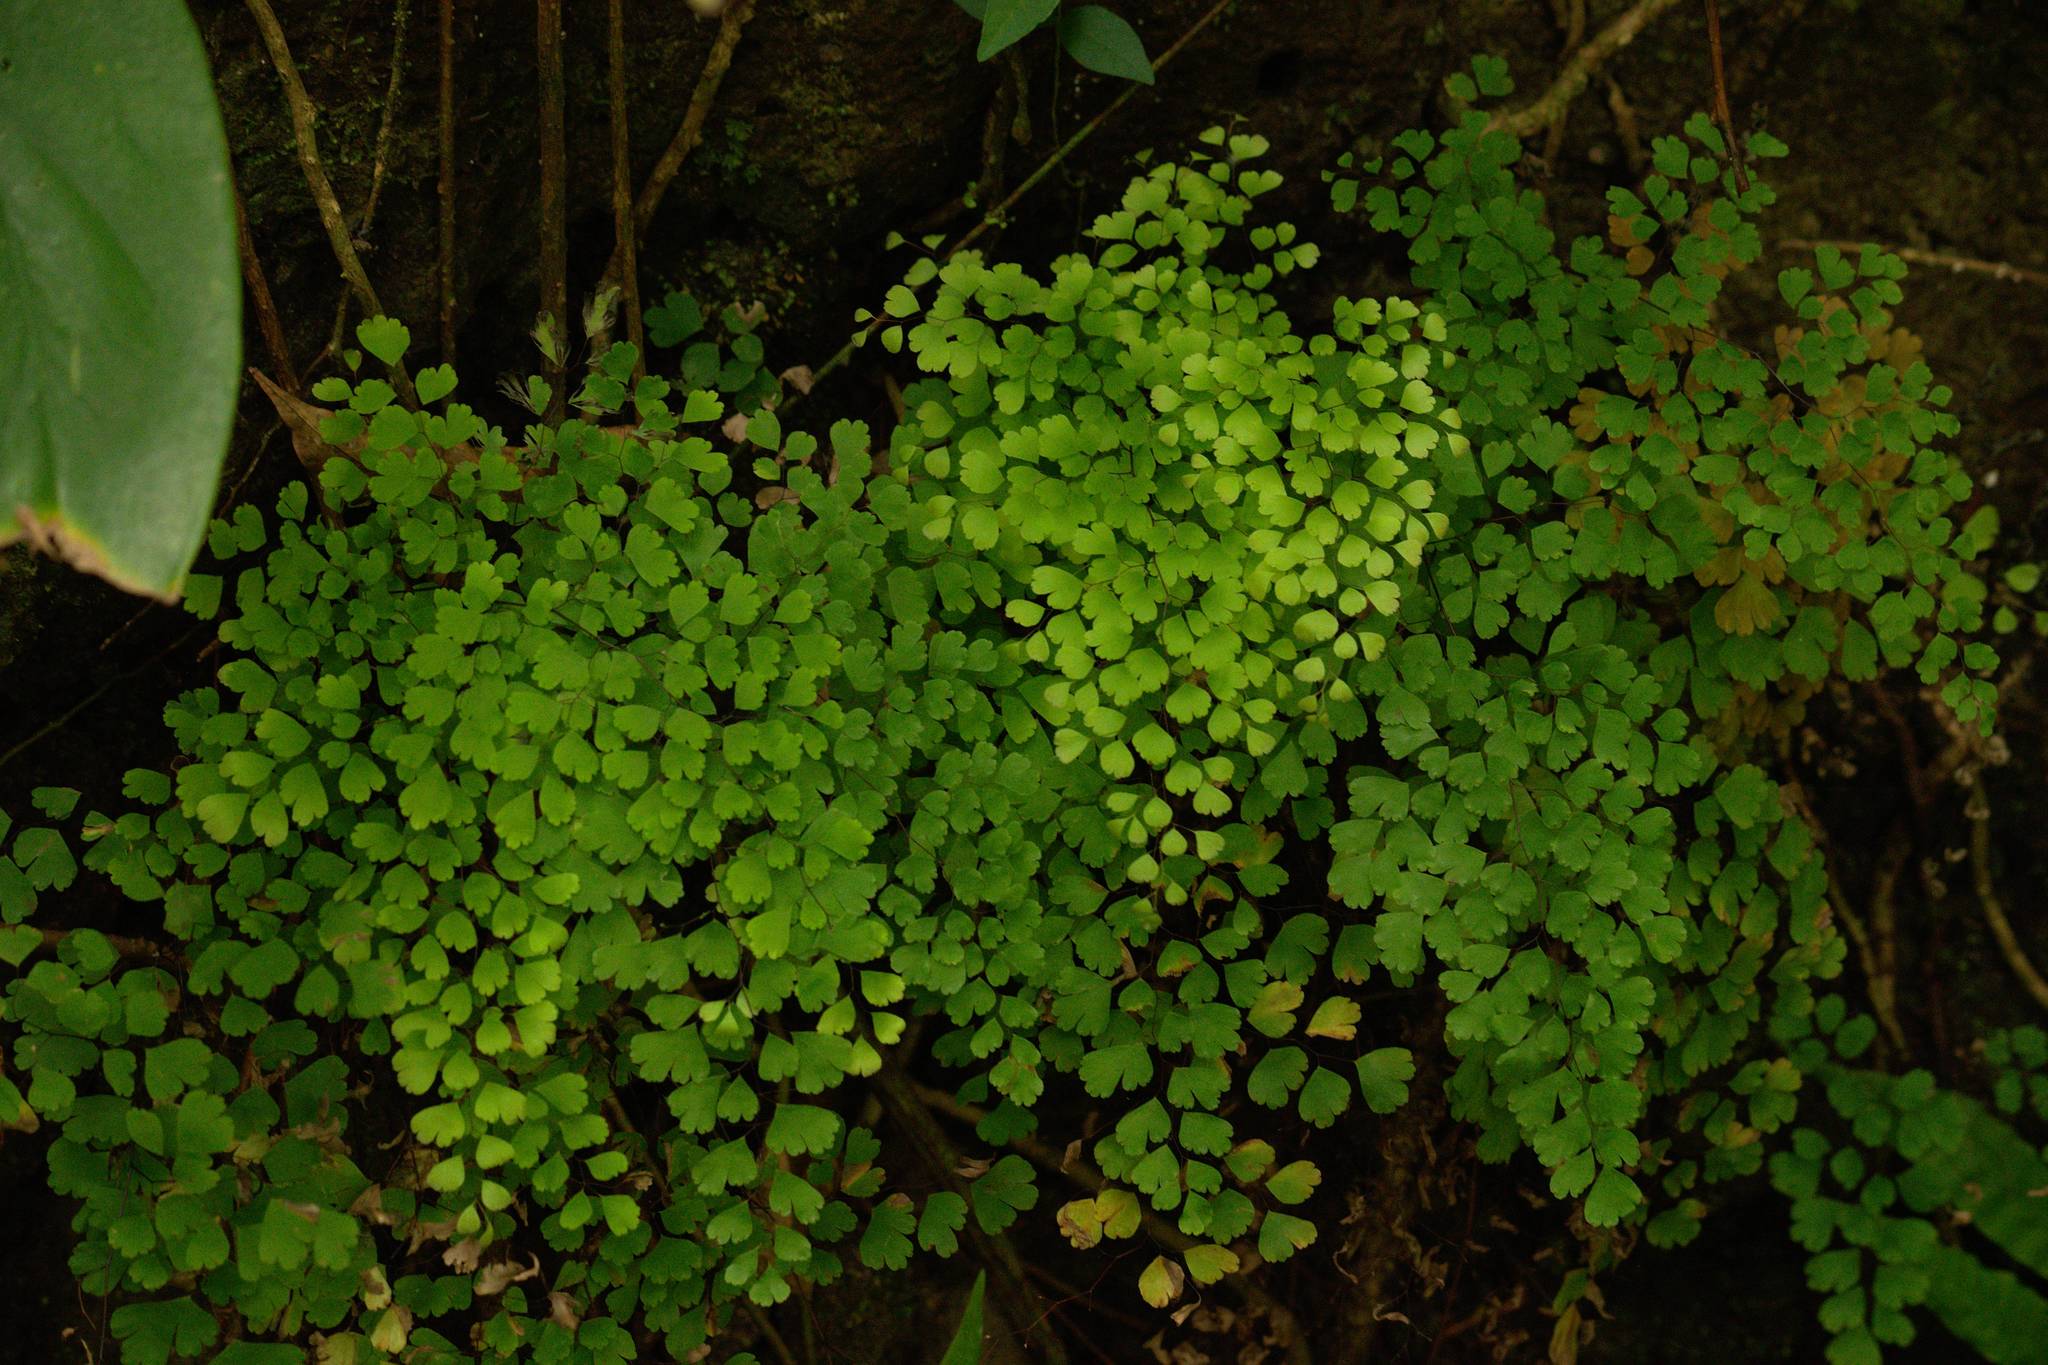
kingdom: Plantae
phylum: Tracheophyta
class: Polypodiopsida
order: Polypodiales
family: Pteridaceae
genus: Adiantum
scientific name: Adiantum raddianum
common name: Delta maidenhair fern
